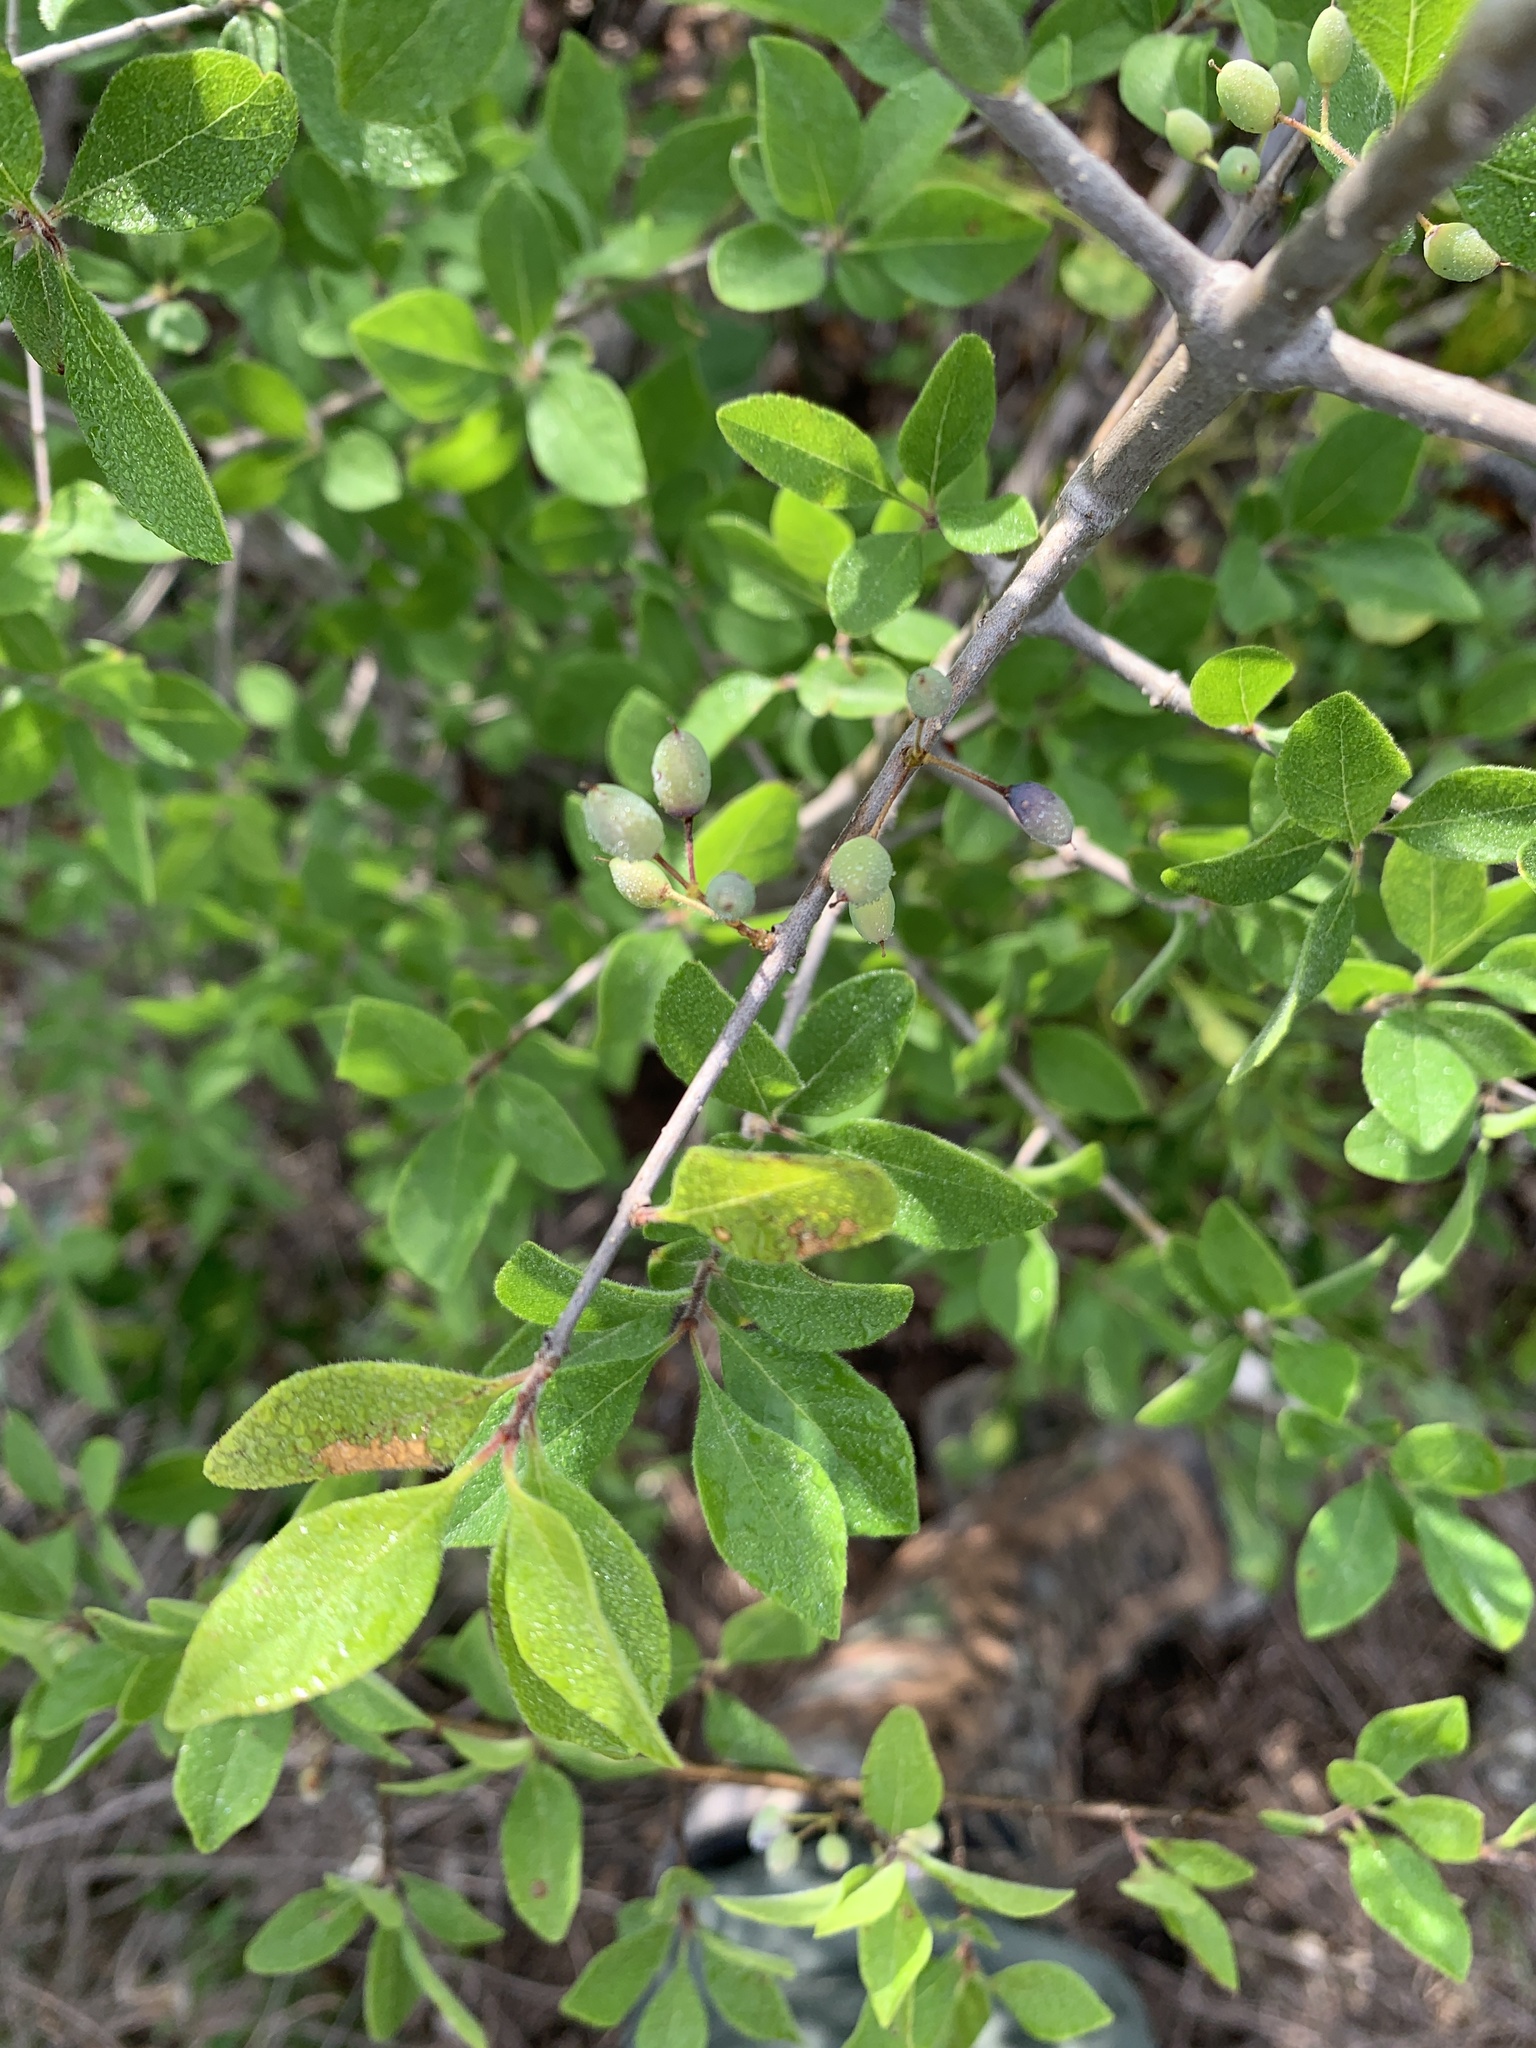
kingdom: Plantae
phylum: Tracheophyta
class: Magnoliopsida
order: Lamiales
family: Oleaceae
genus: Forestiera
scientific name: Forestiera pubescens
